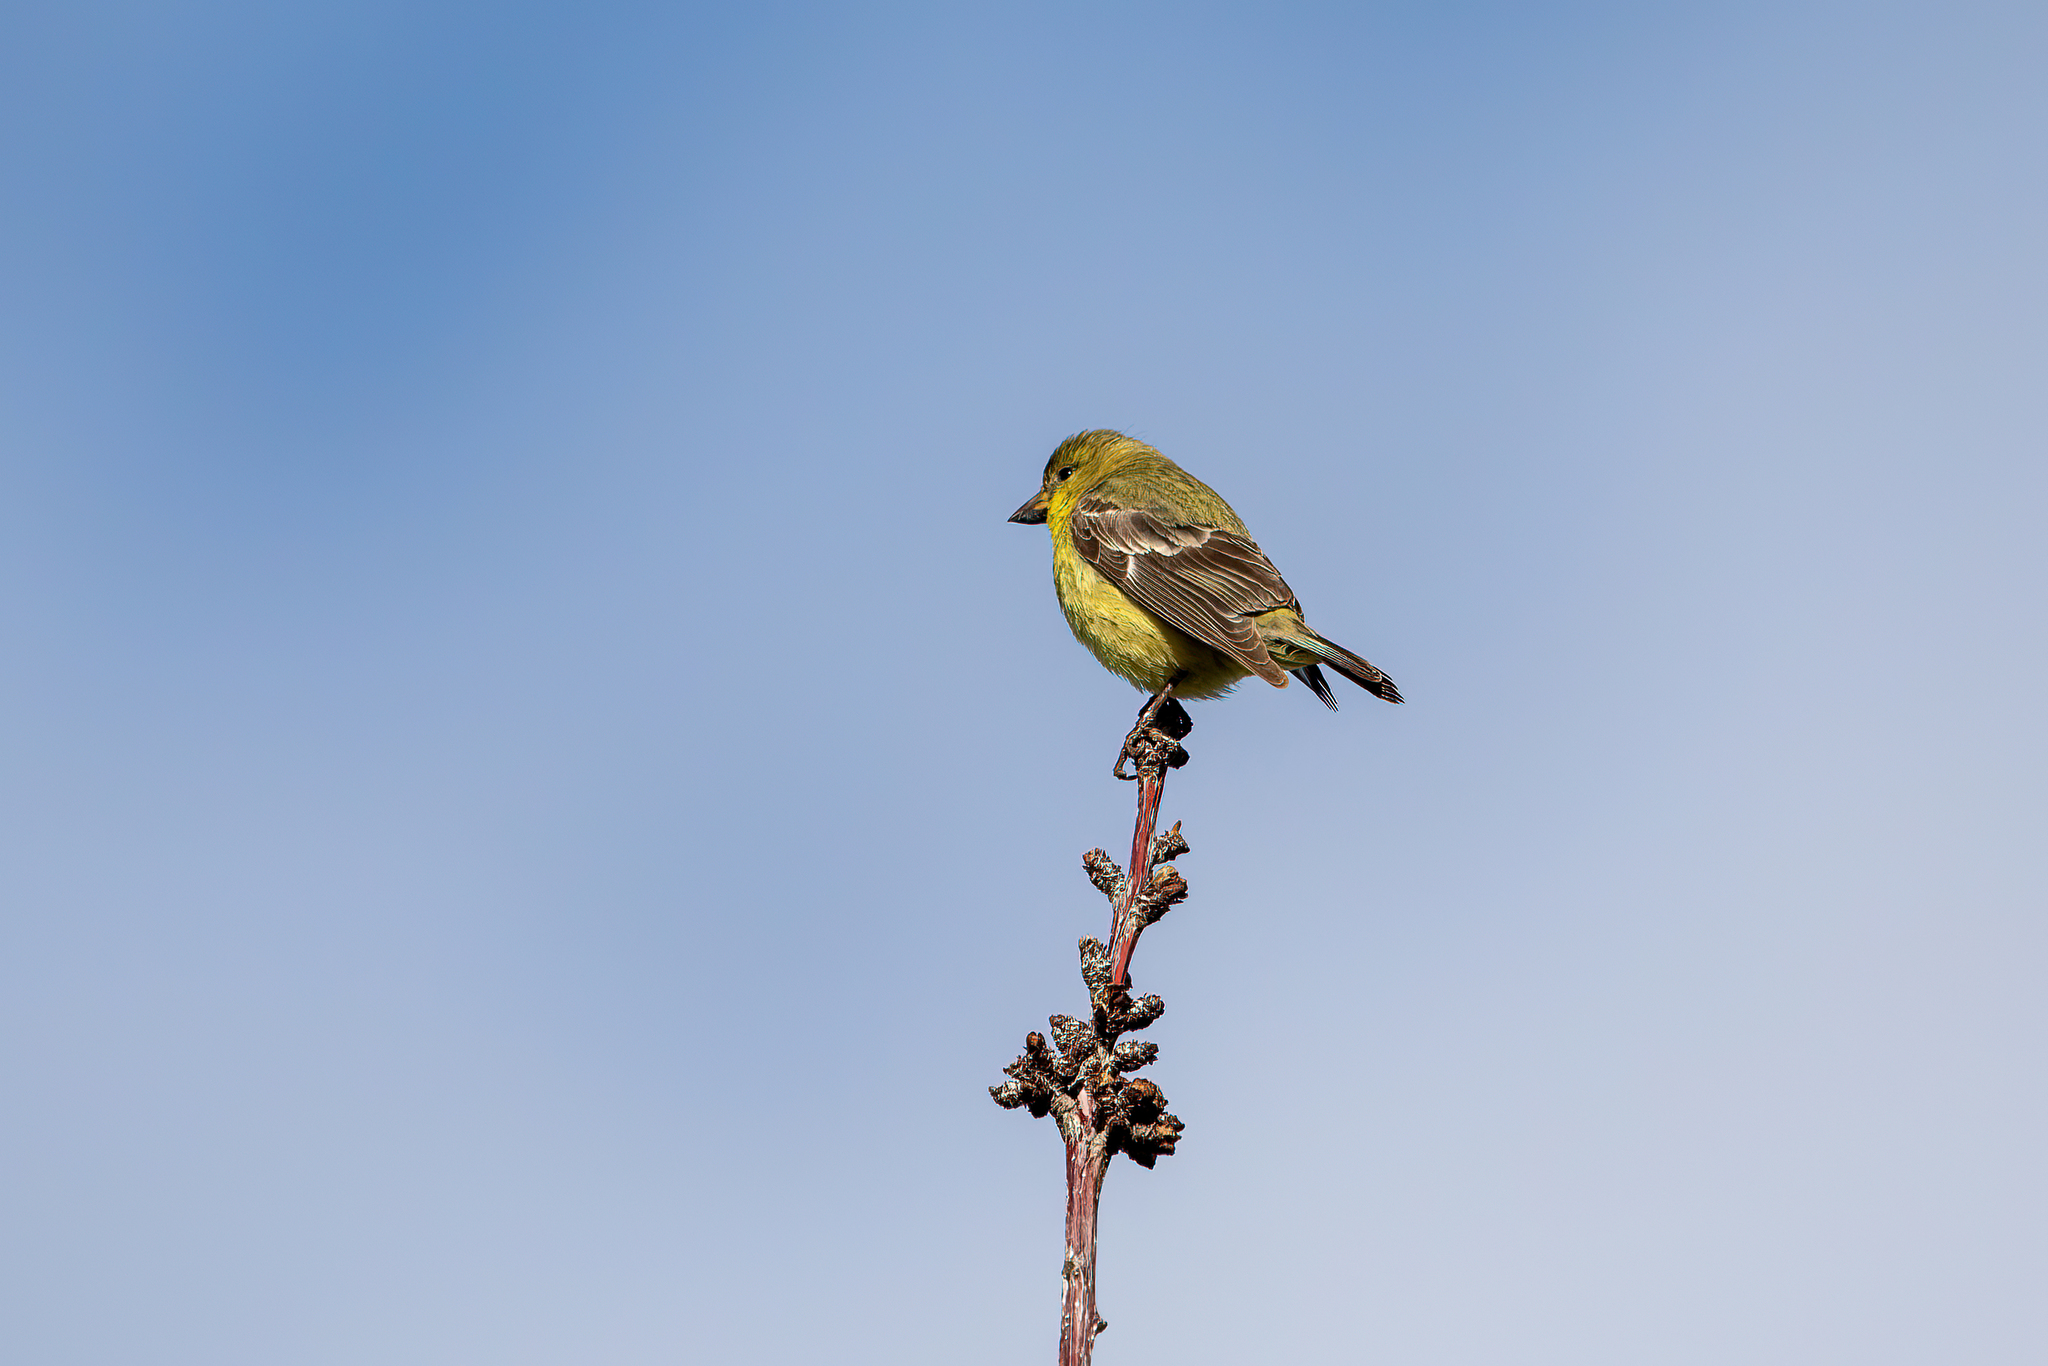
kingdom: Animalia
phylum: Chordata
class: Aves
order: Passeriformes
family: Fringillidae
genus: Spinus
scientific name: Spinus psaltria
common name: Lesser goldfinch
